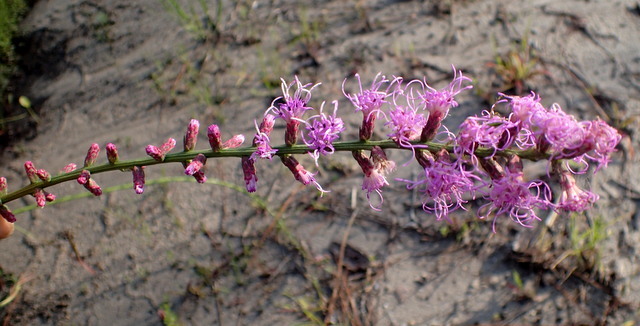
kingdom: Plantae
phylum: Tracheophyta
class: Magnoliopsida
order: Asterales
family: Asteraceae
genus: Liatris
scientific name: Liatris spicata
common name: Florist gayfeather
